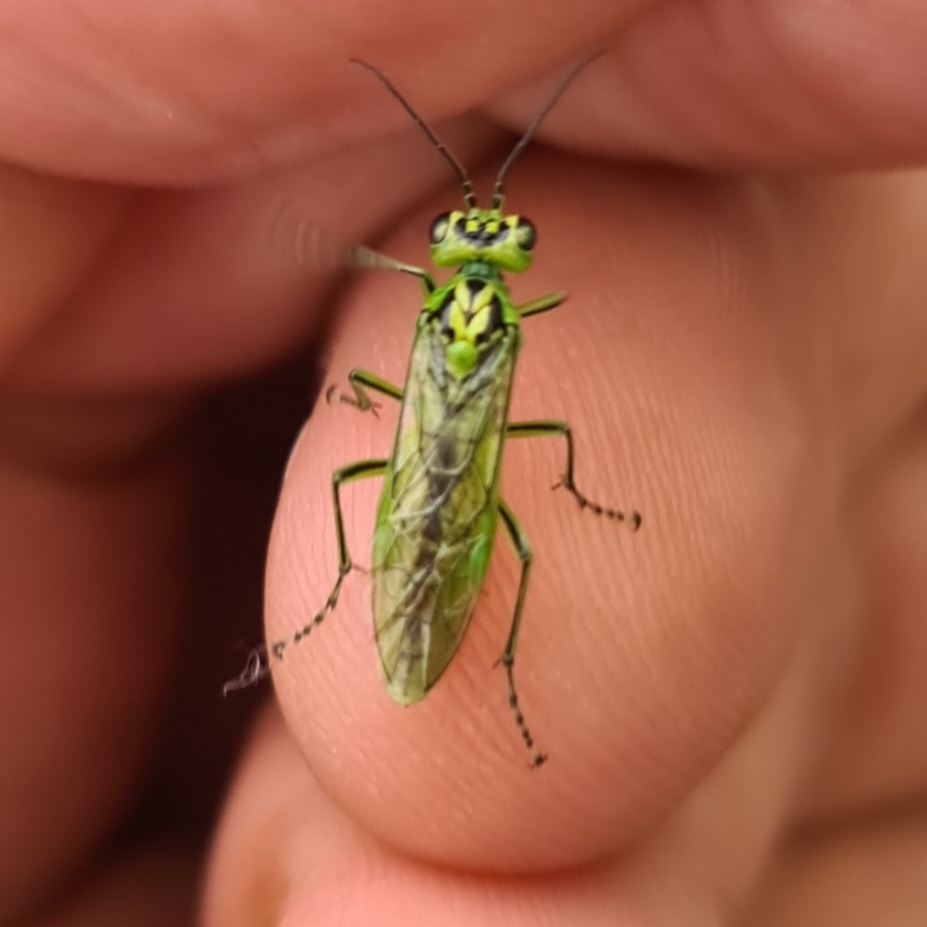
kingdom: Animalia
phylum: Arthropoda
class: Insecta
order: Hymenoptera
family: Tenthredinidae
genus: Rhogogaster
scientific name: Rhogogaster chlorosoma
